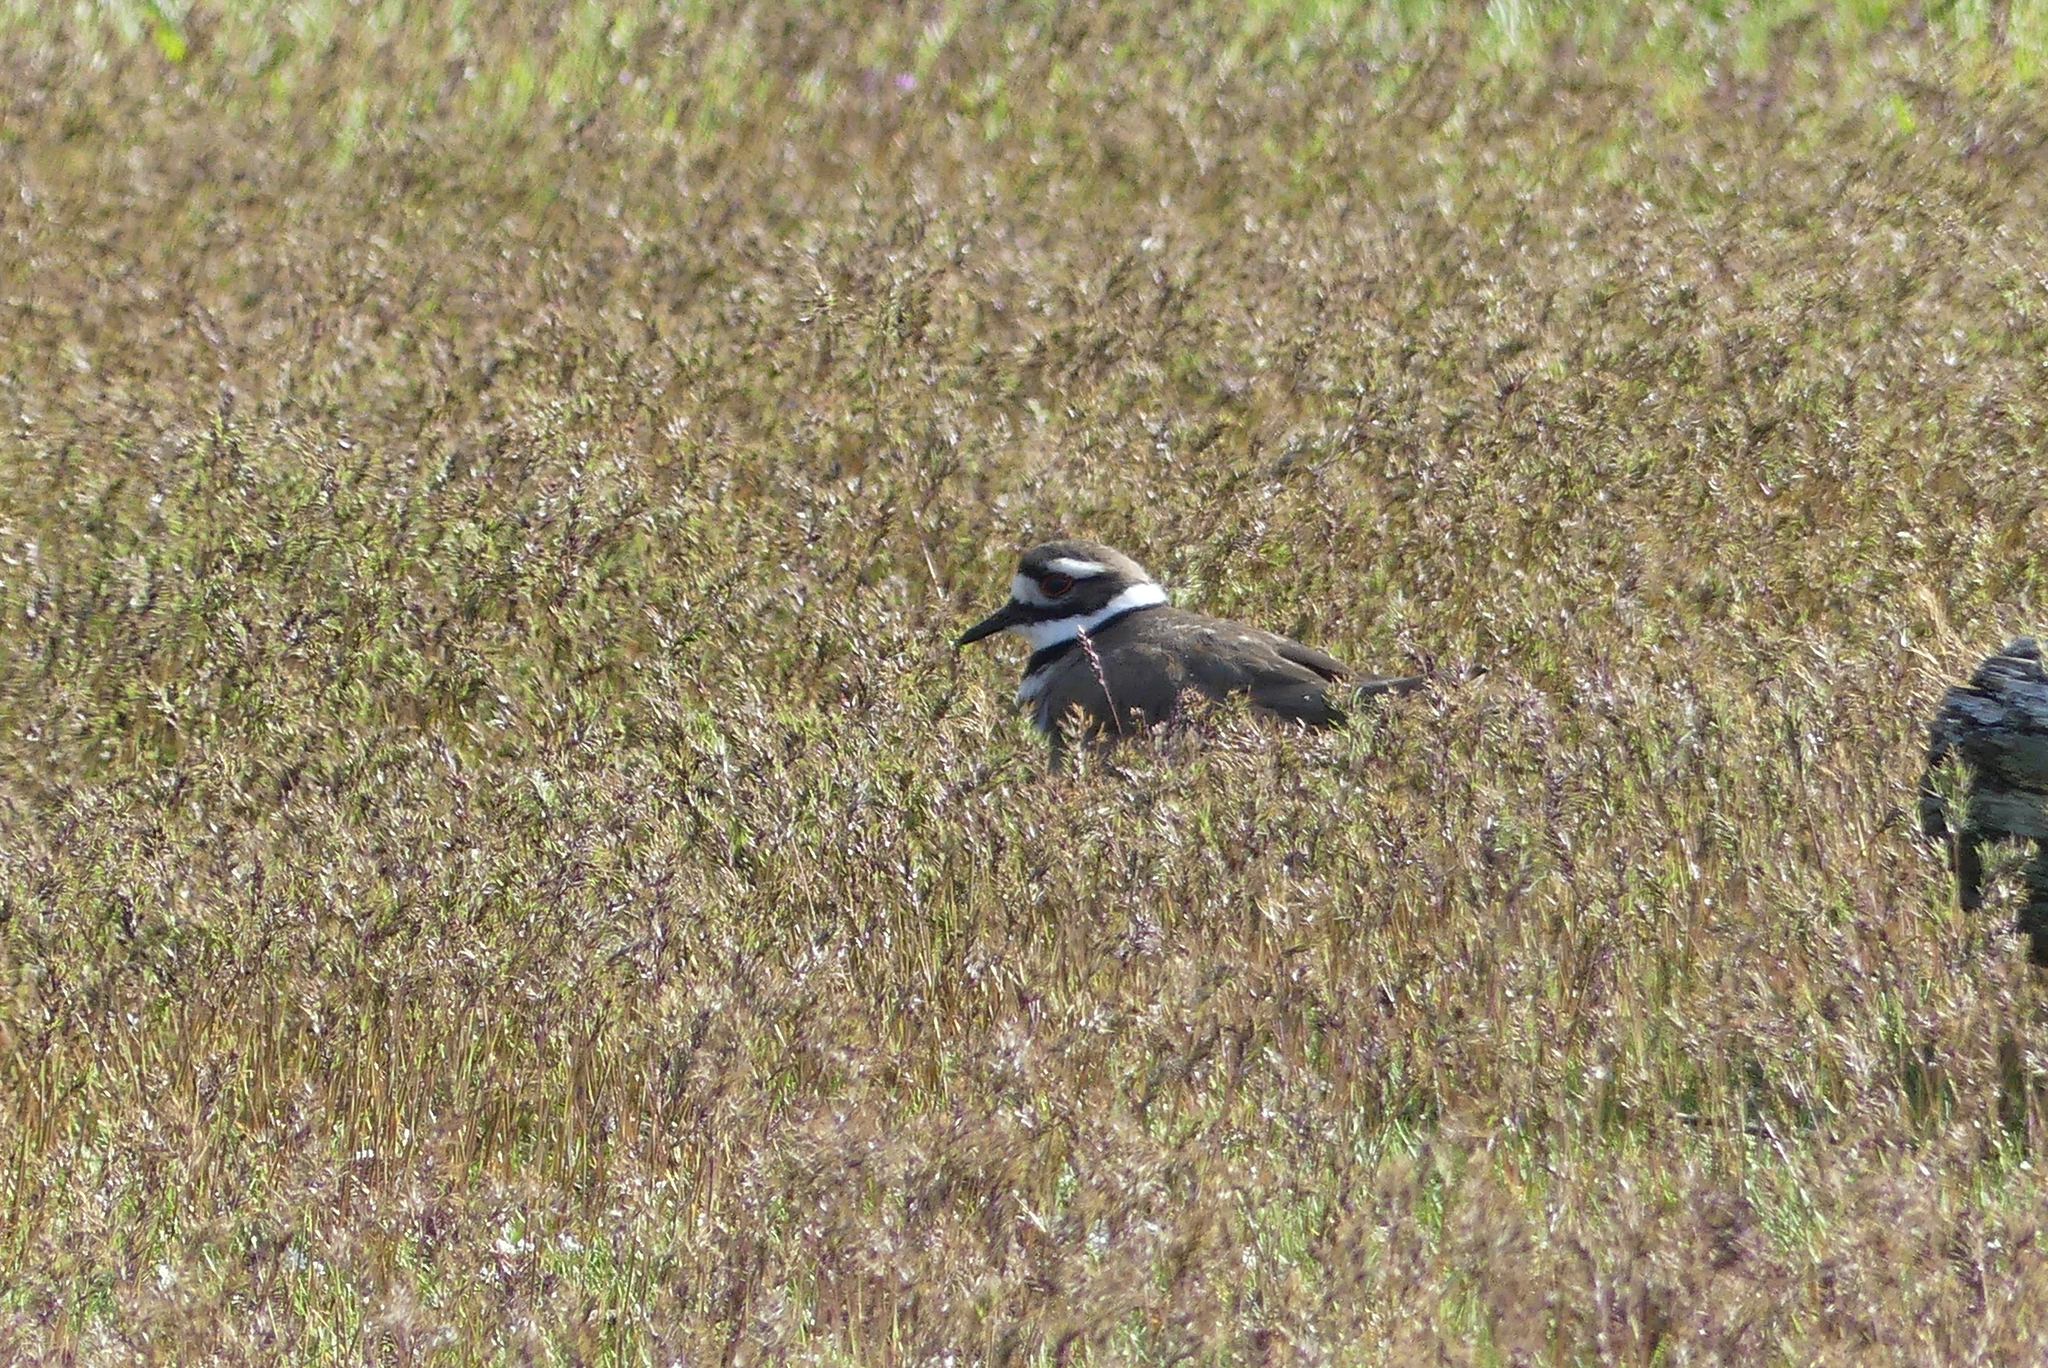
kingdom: Animalia
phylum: Chordata
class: Aves
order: Charadriiformes
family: Charadriidae
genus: Charadrius
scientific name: Charadrius vociferus
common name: Killdeer
